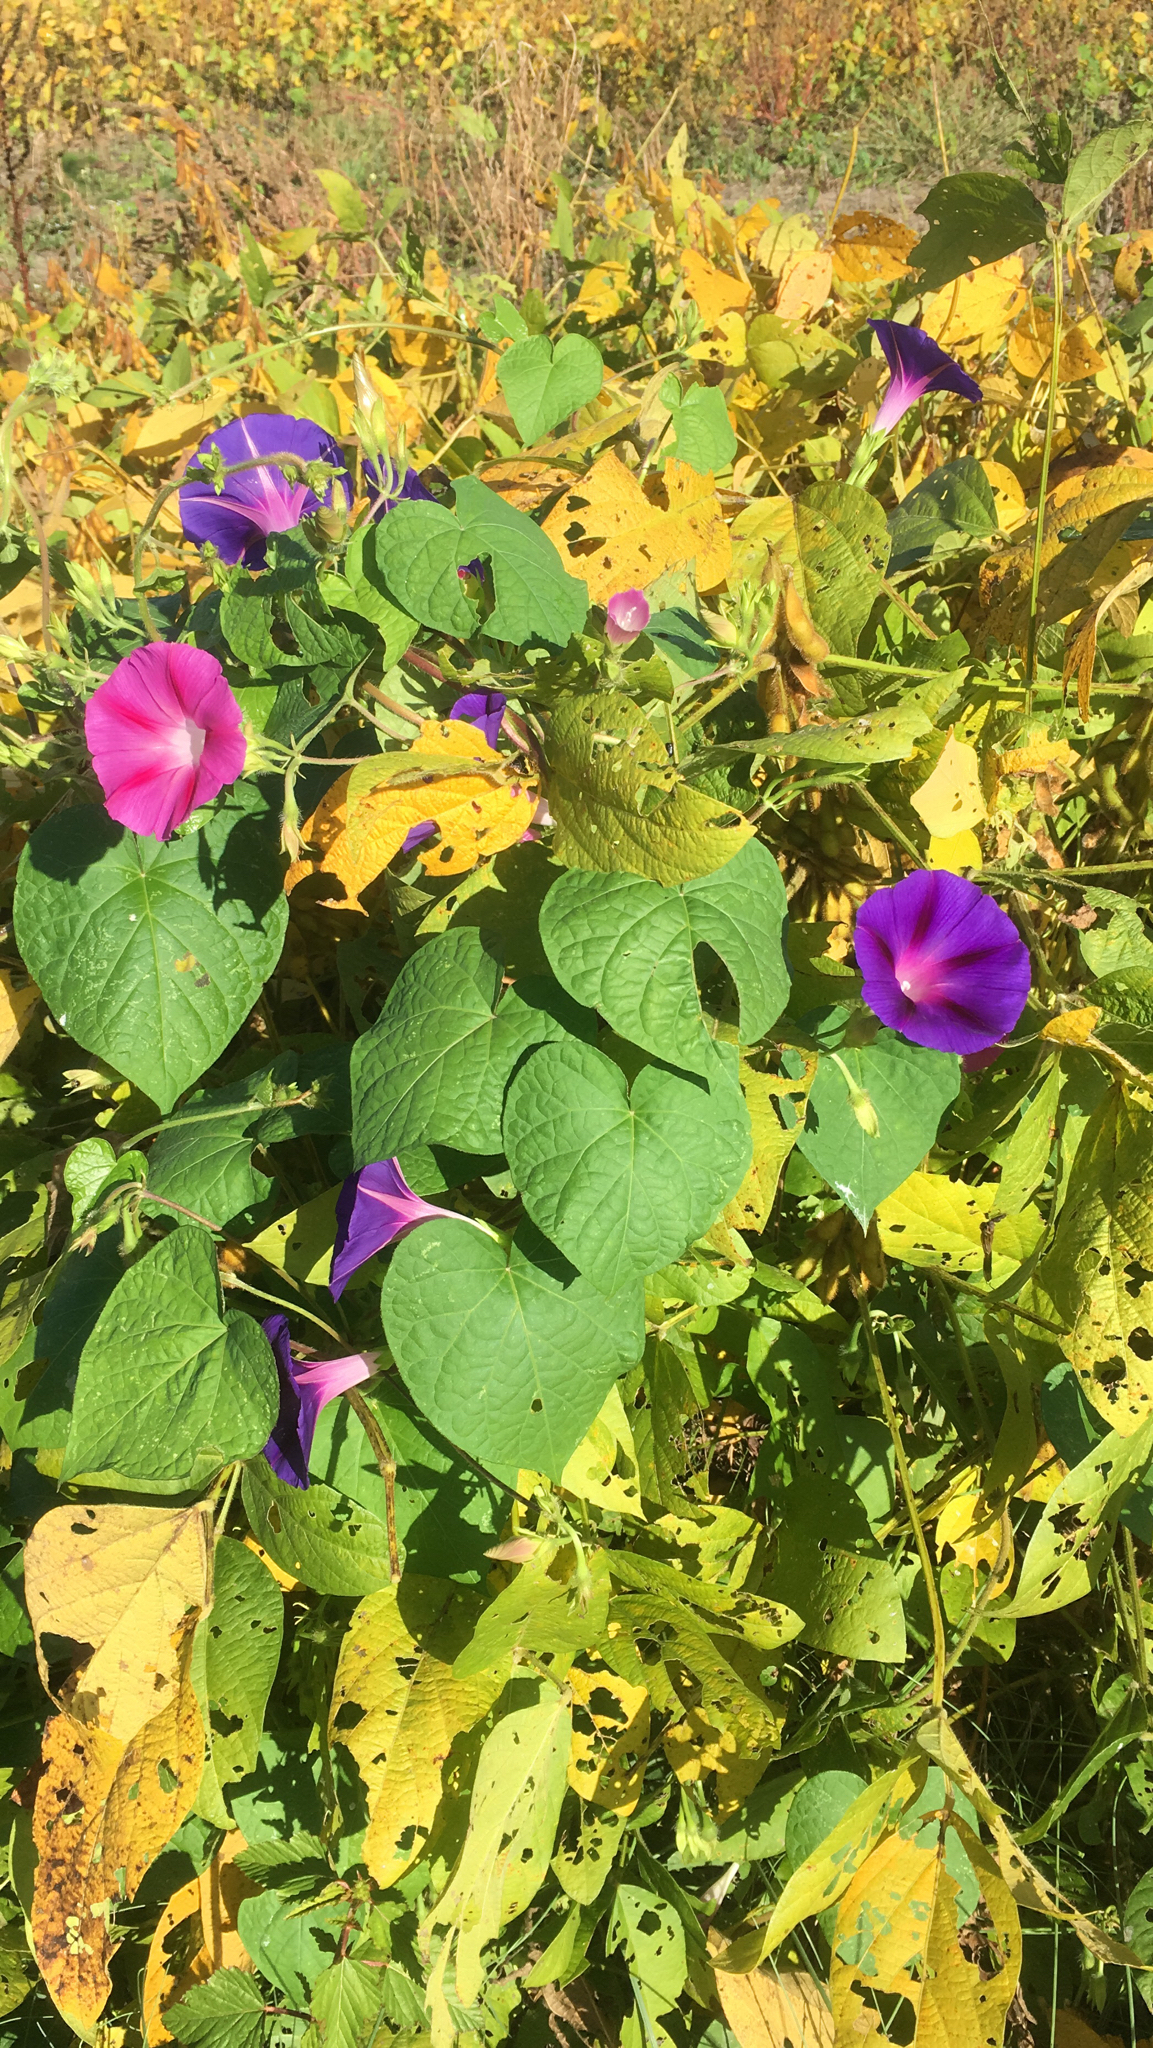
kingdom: Plantae
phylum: Tracheophyta
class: Magnoliopsida
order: Solanales
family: Convolvulaceae
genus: Ipomoea
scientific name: Ipomoea purpurea
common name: Common morning-glory
